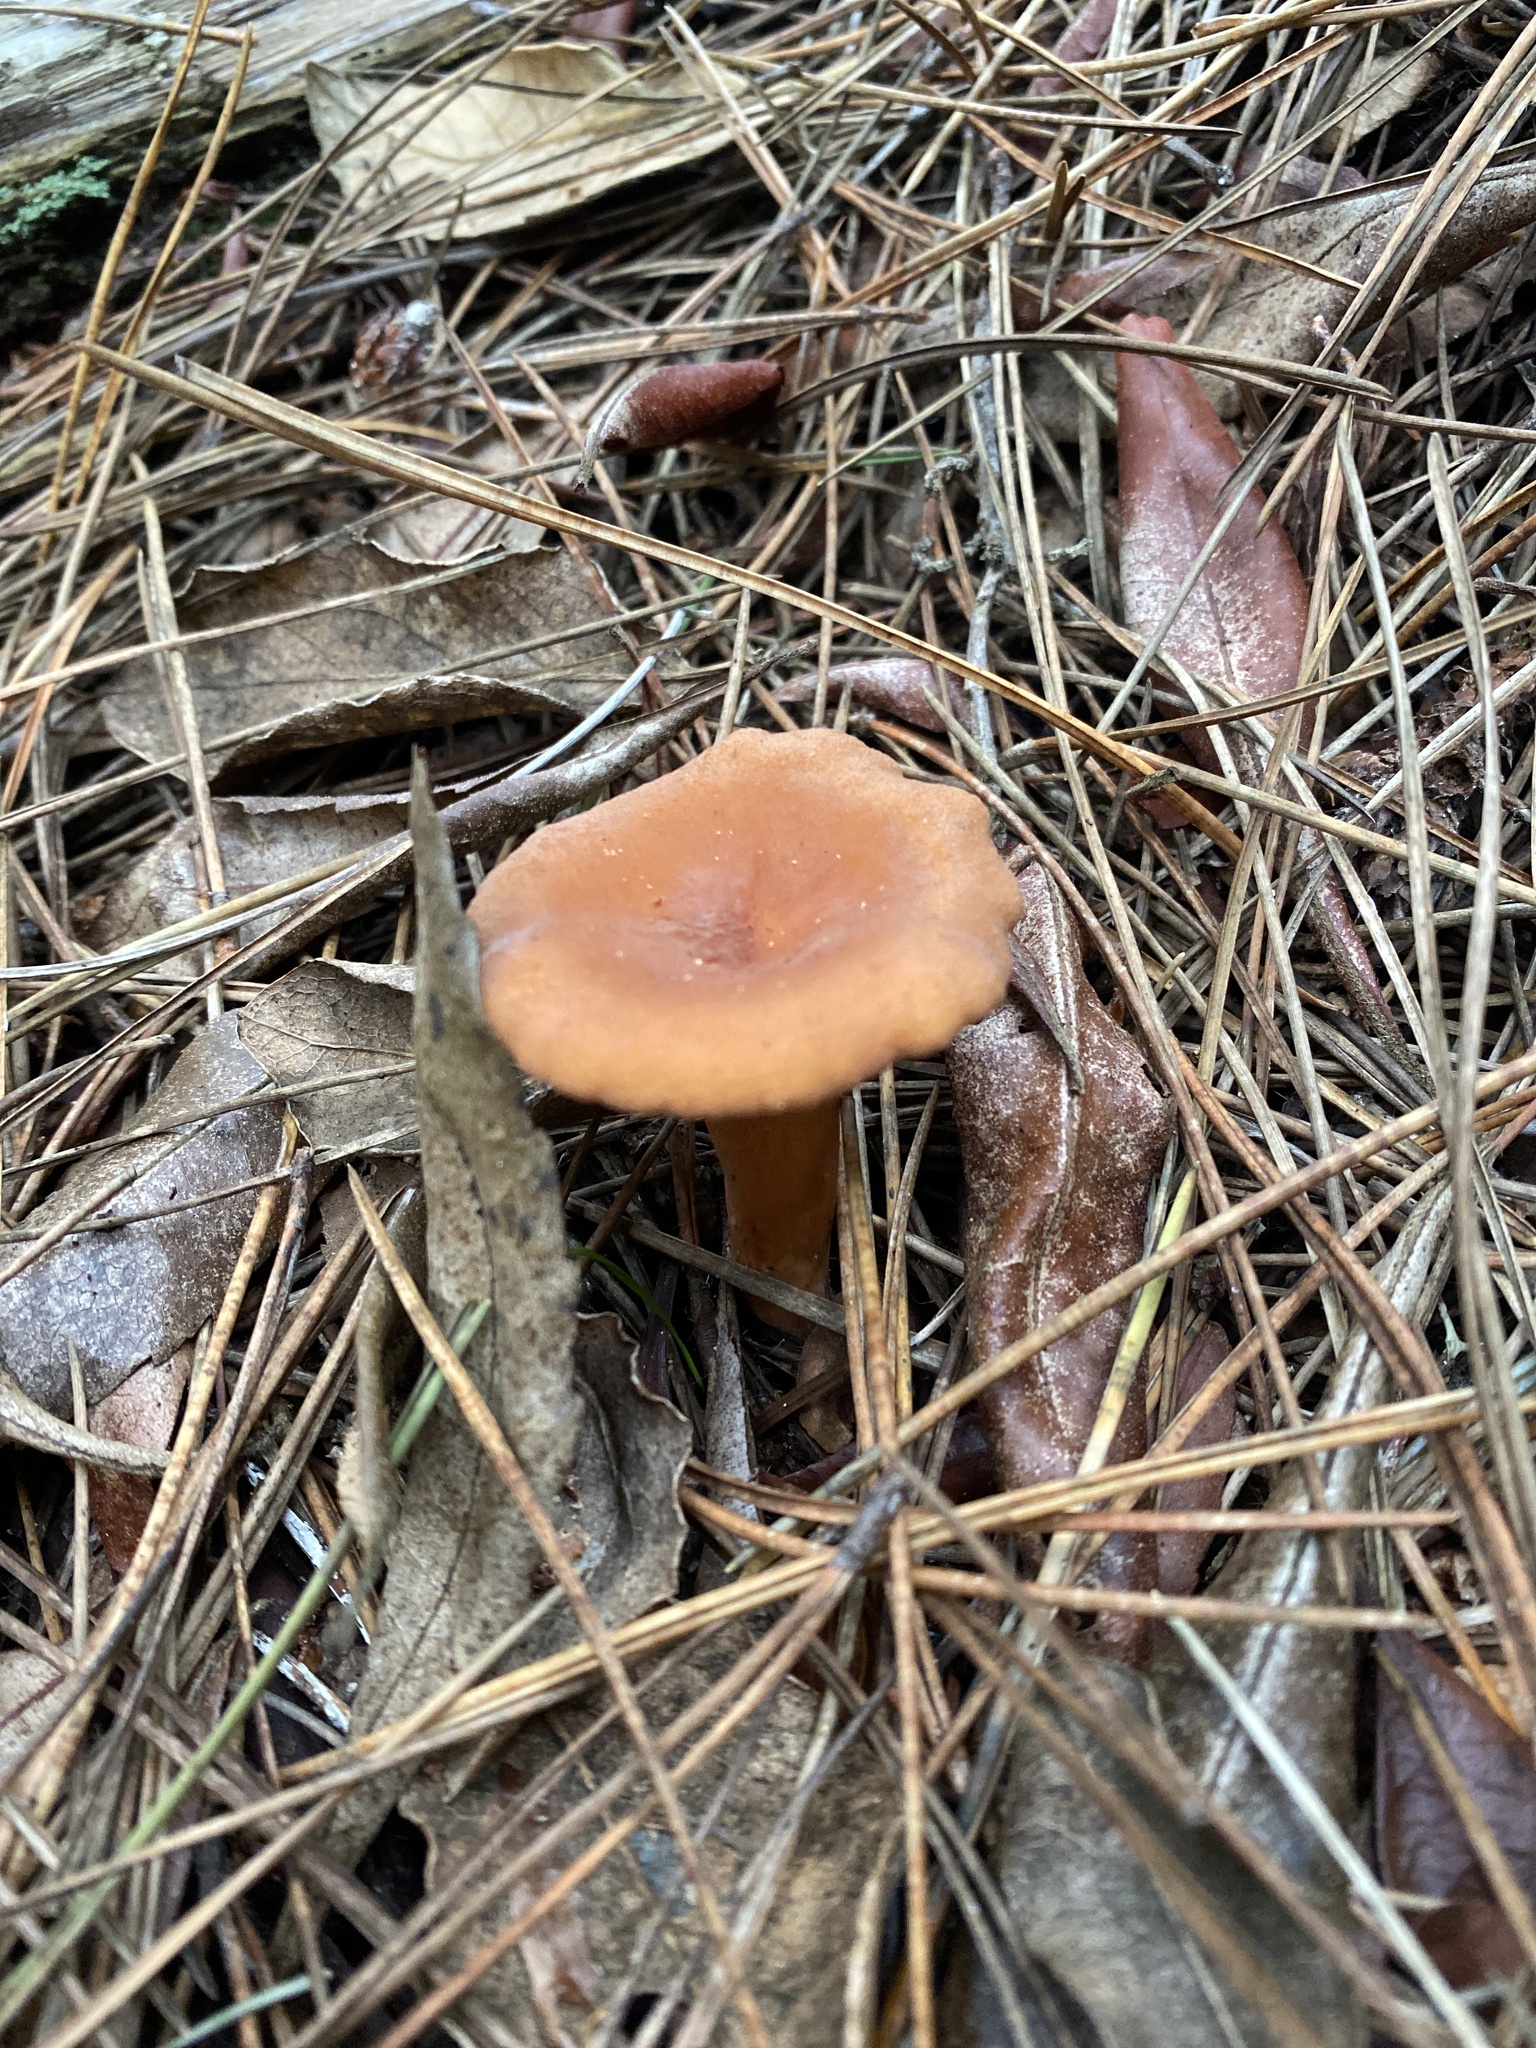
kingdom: Fungi
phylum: Basidiomycota
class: Agaricomycetes
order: Russulales
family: Russulaceae
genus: Lactarius
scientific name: Lactarius rubidus
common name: Candy cap
